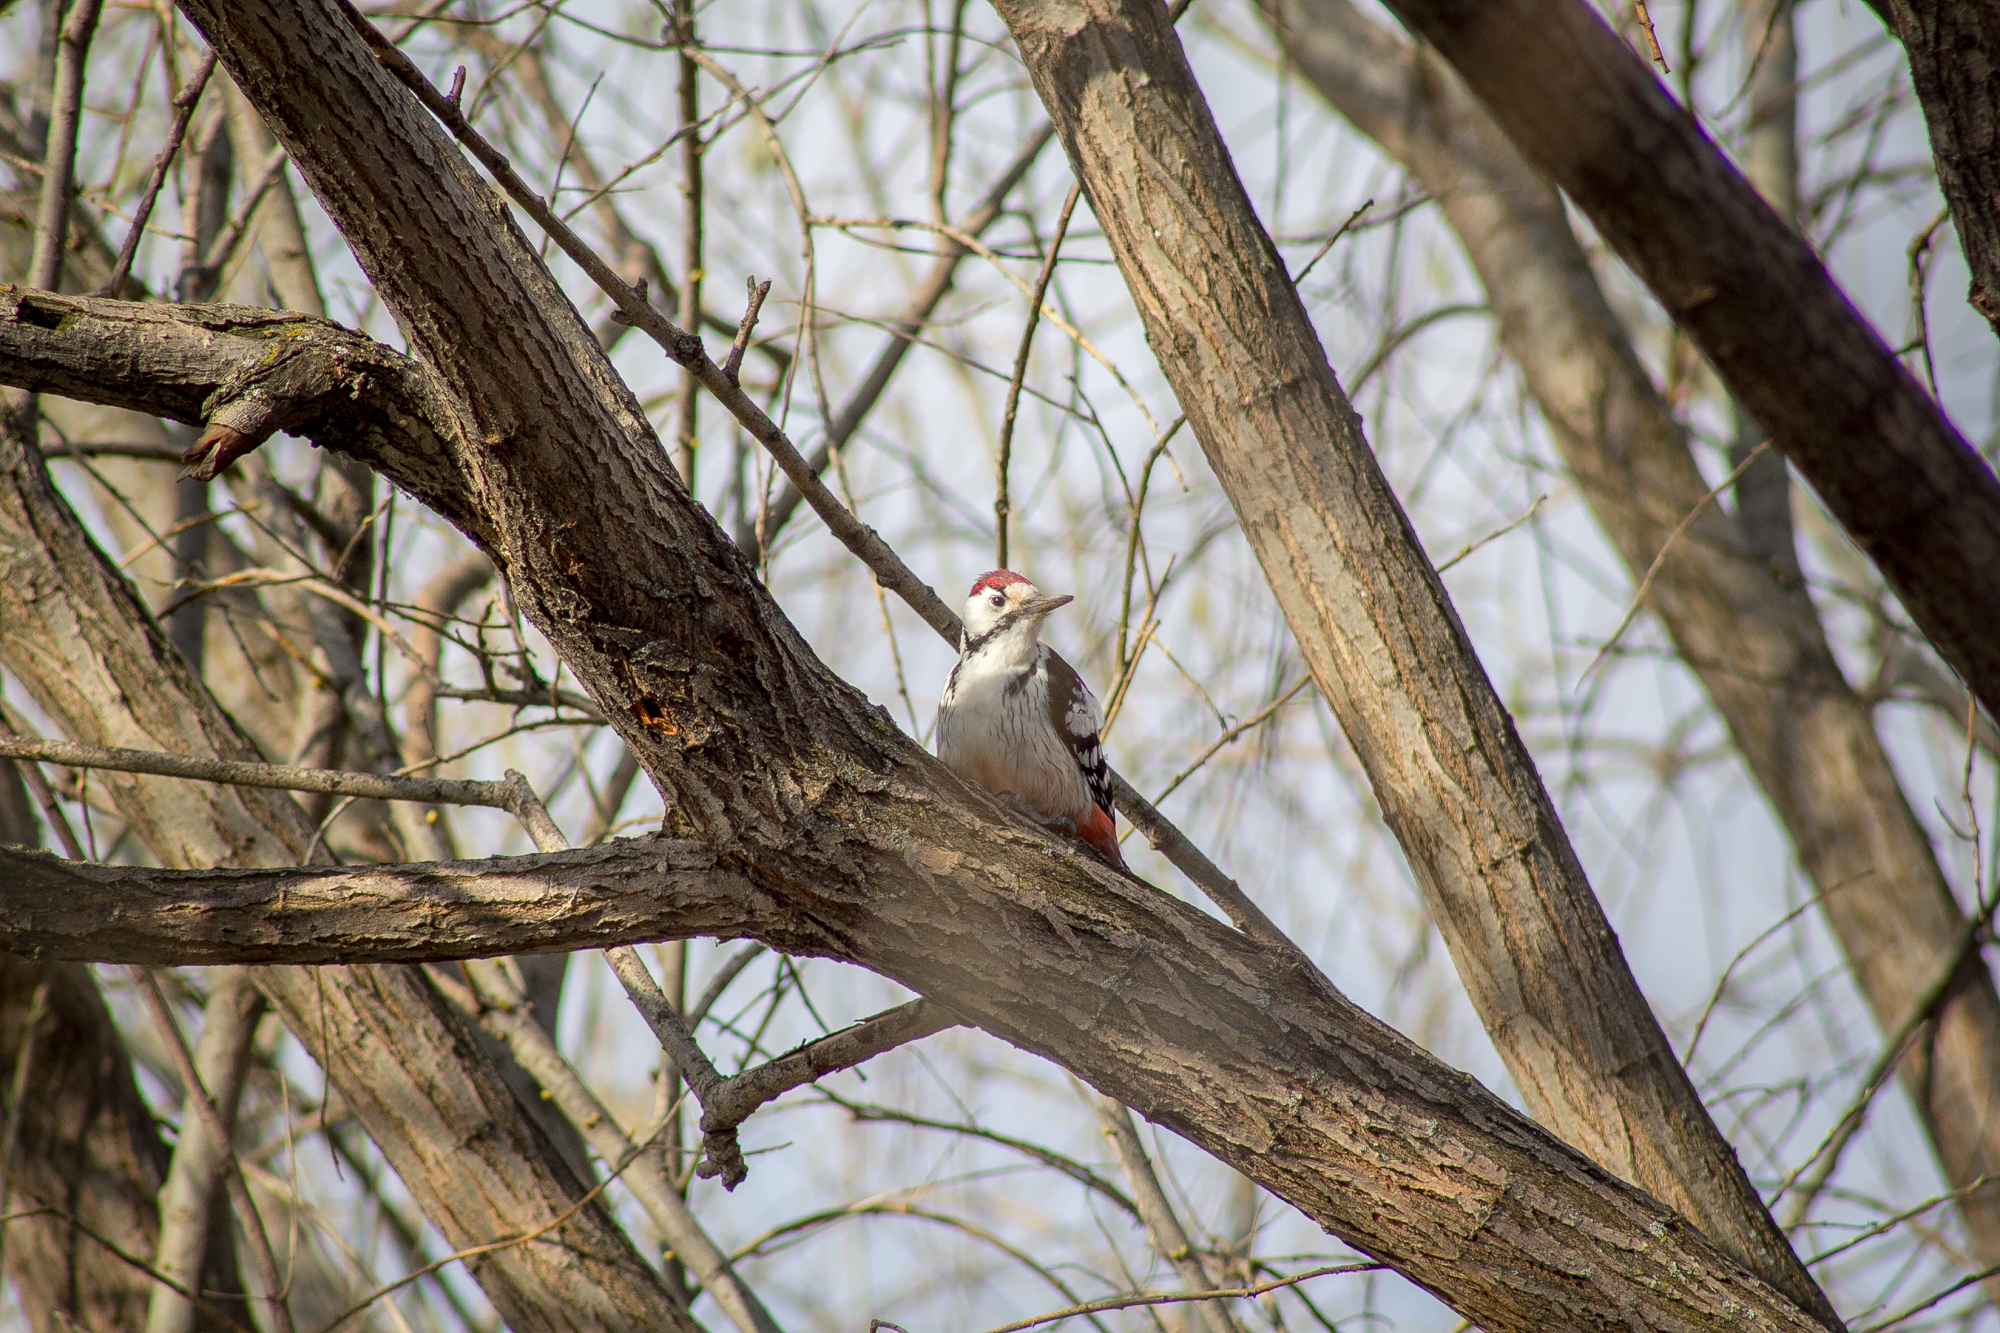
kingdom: Animalia
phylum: Chordata
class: Aves
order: Piciformes
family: Picidae
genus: Dendrocopos
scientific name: Dendrocopos leucotos
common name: White-backed woodpecker
